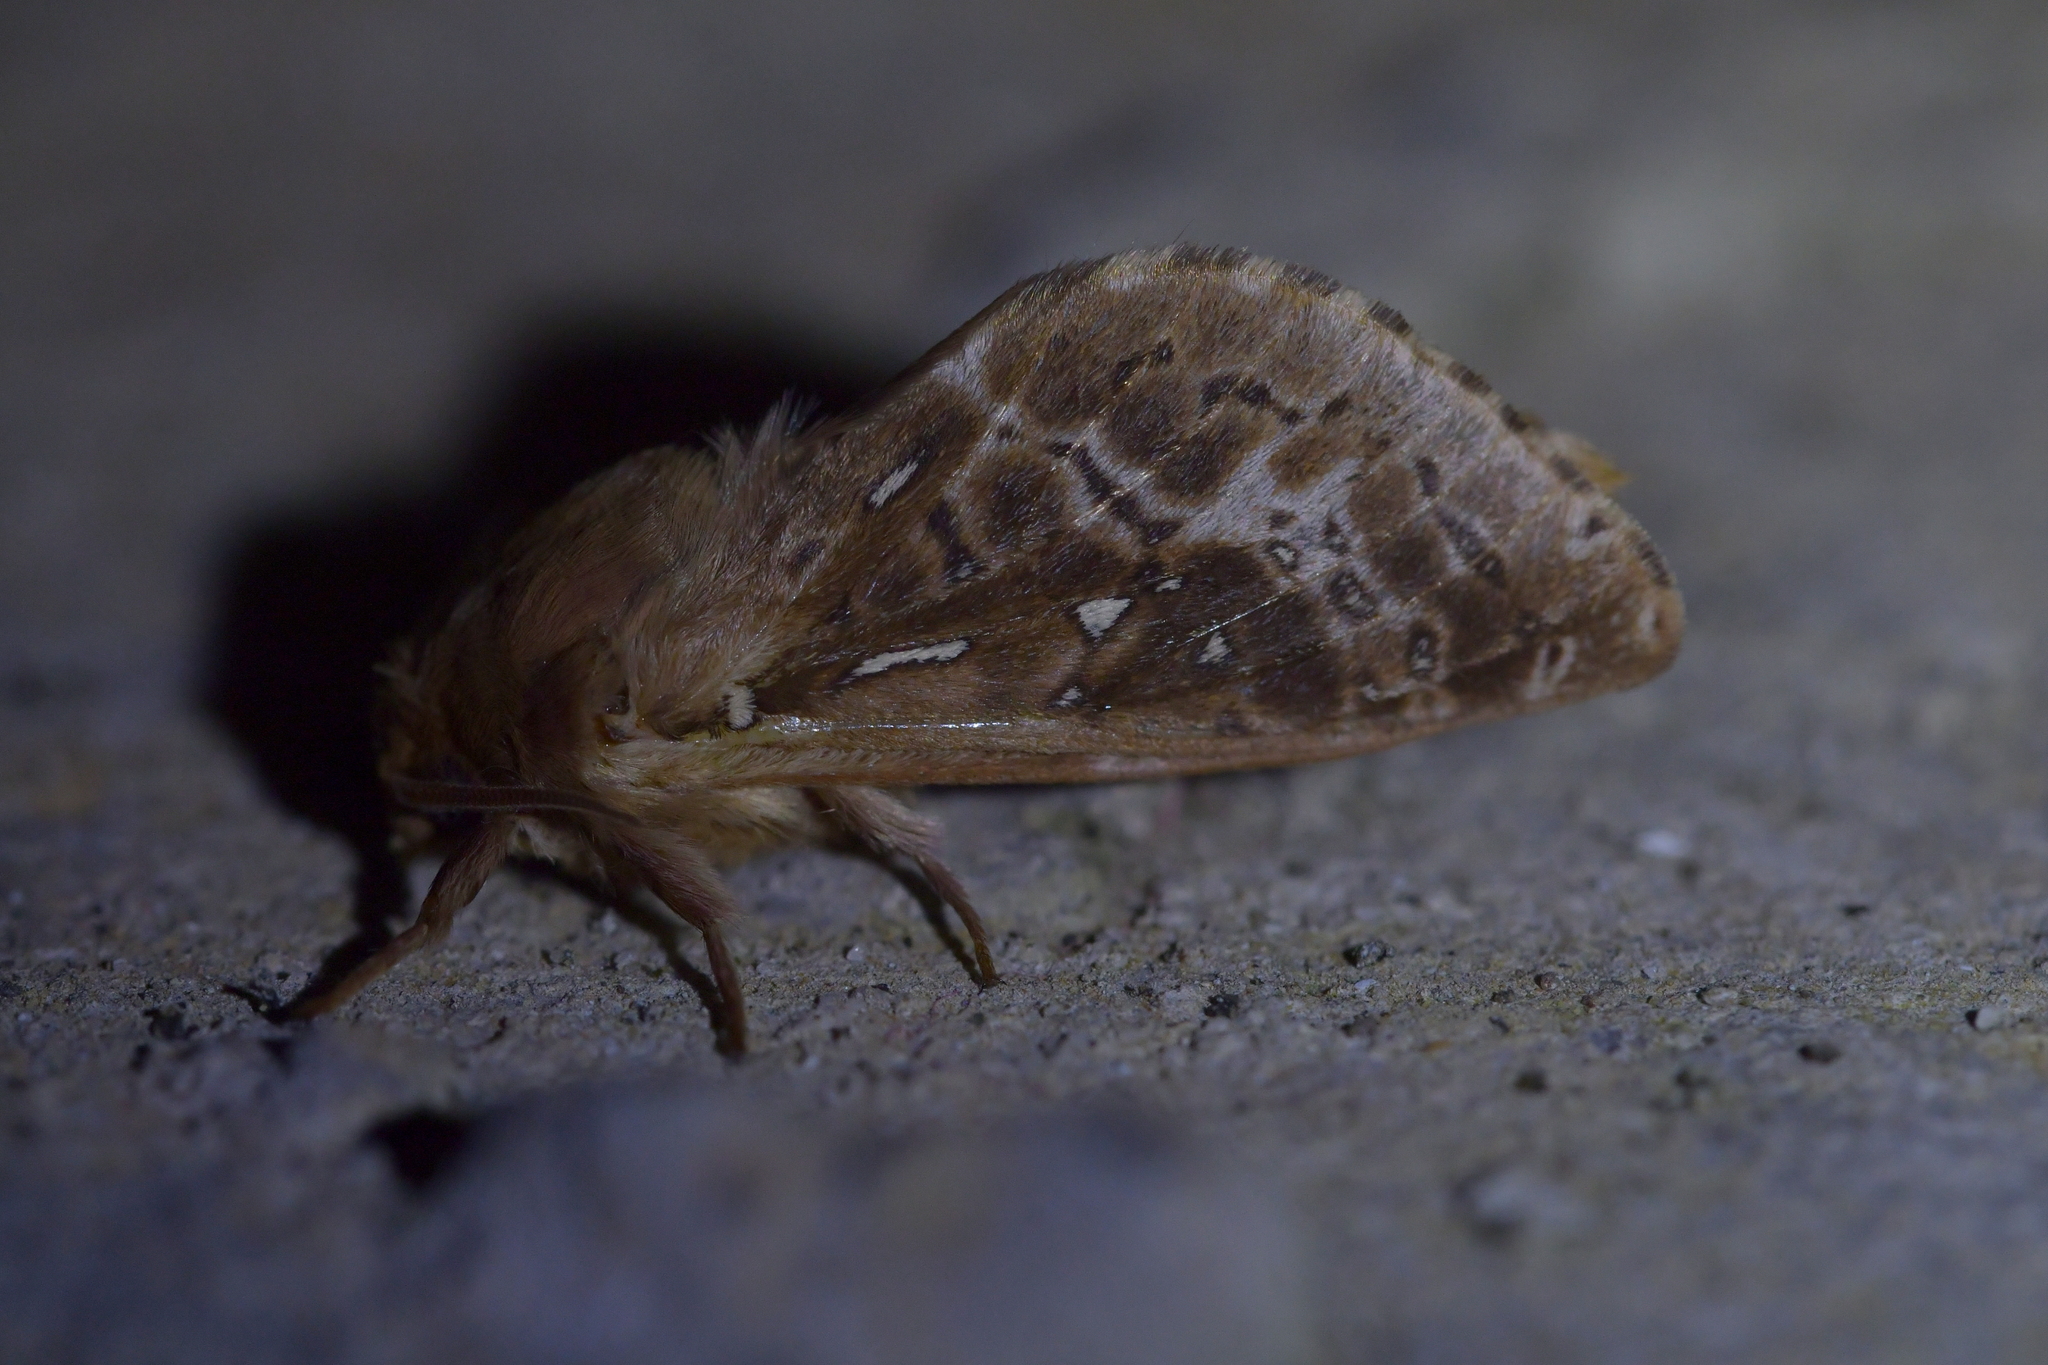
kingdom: Animalia
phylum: Arthropoda
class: Insecta
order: Lepidoptera
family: Hepialidae
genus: Wiseana
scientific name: Wiseana cervinata
